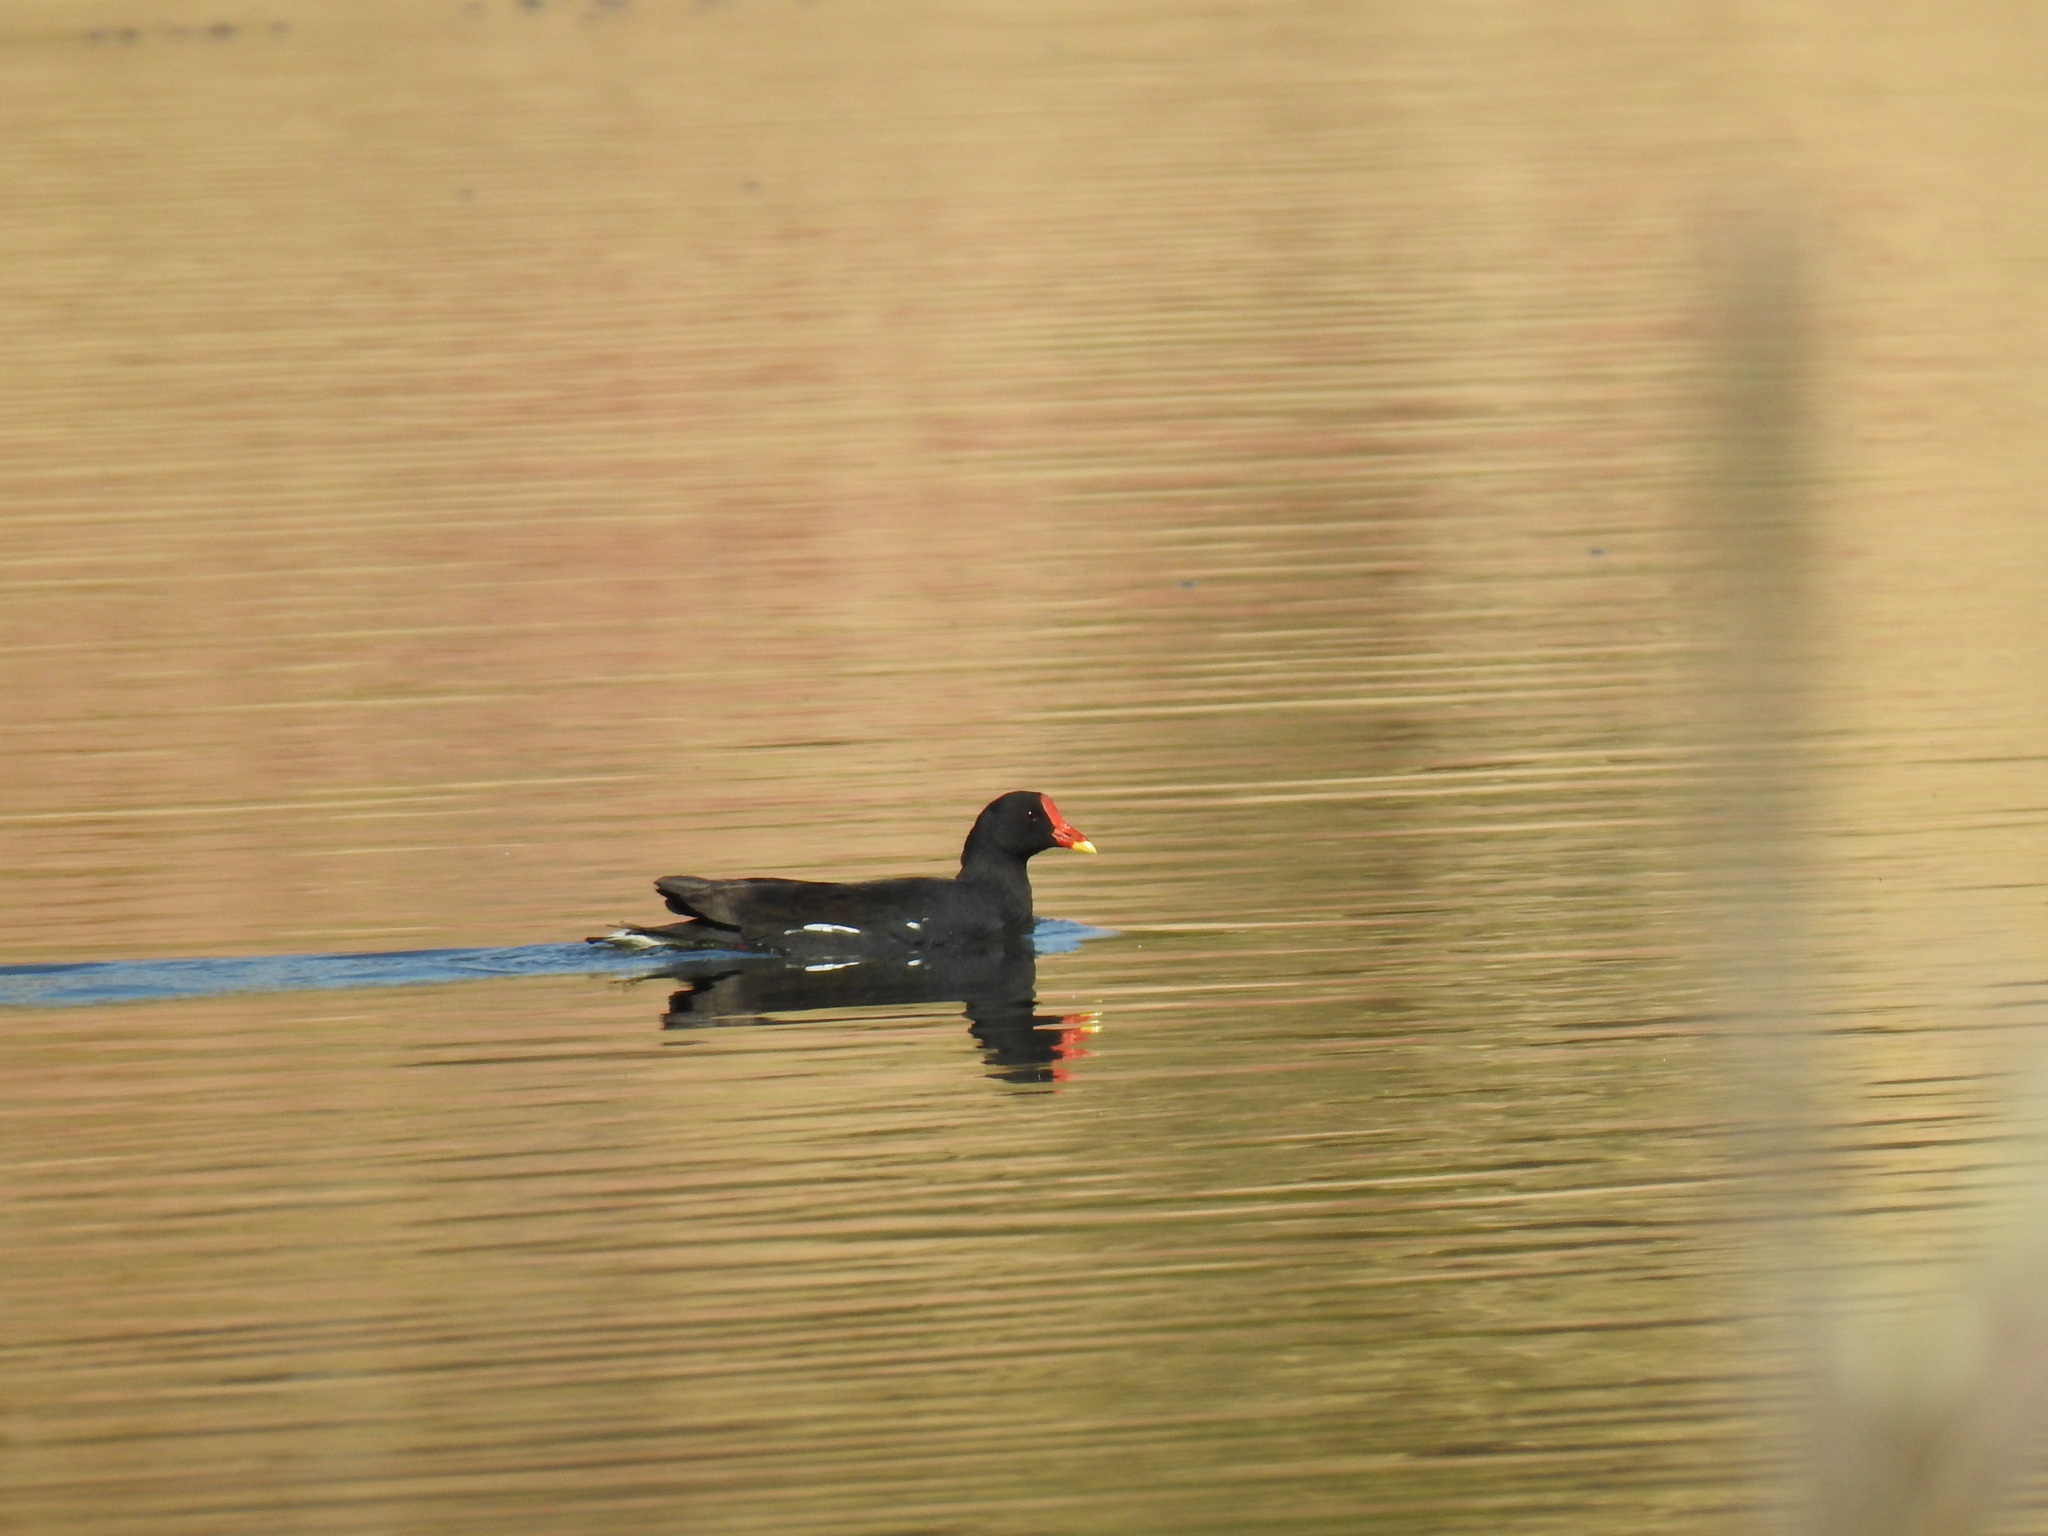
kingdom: Animalia
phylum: Chordata
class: Aves
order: Gruiformes
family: Rallidae
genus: Gallinula
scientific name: Gallinula chloropus
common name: Common moorhen
